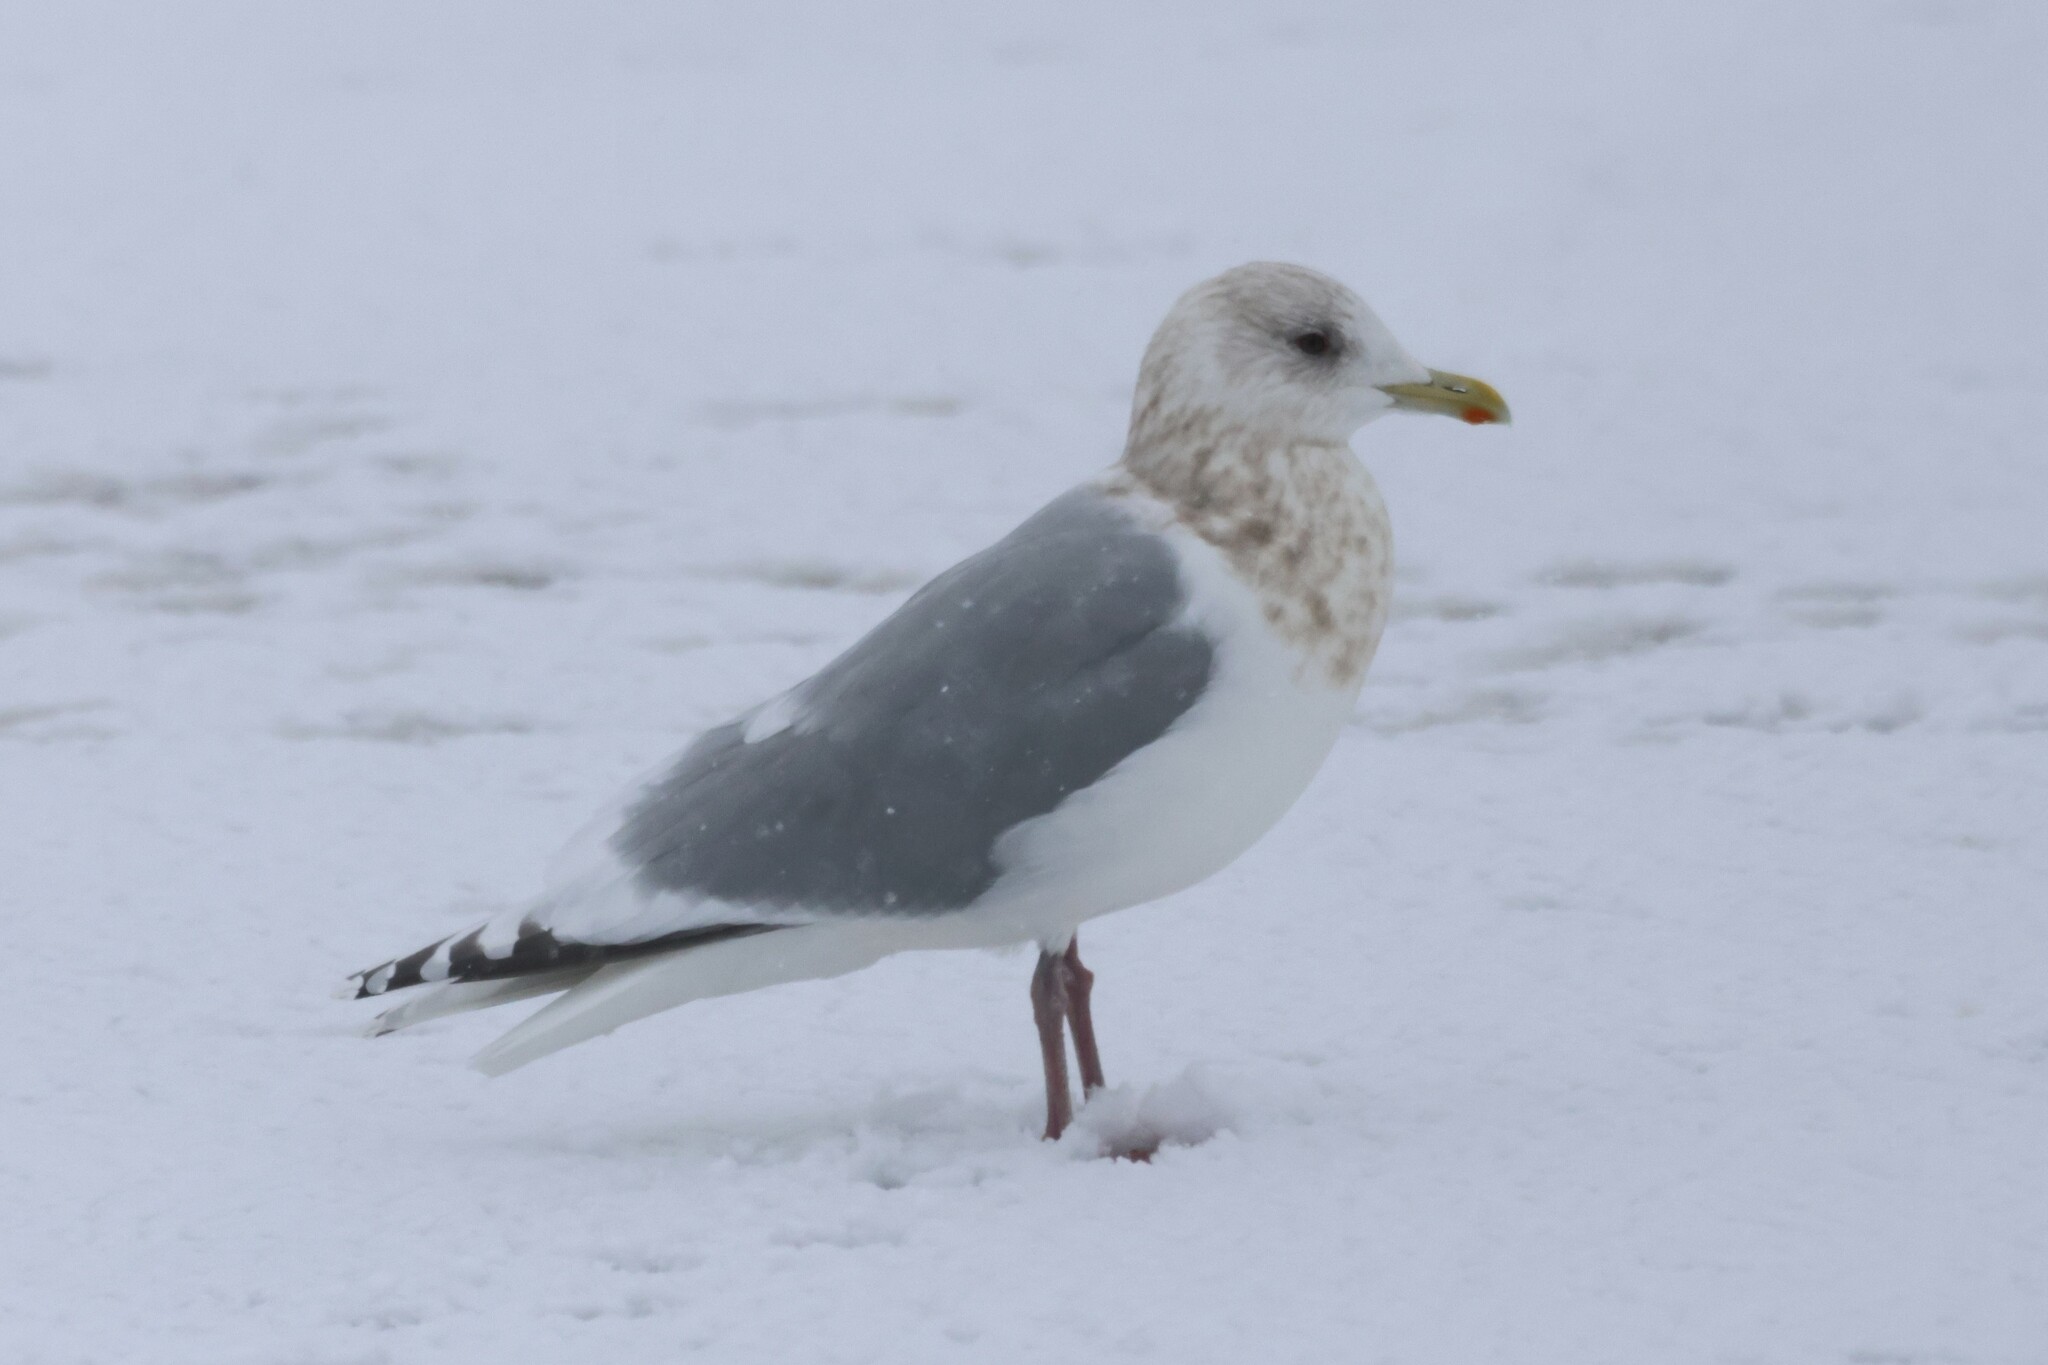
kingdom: Animalia
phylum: Chordata
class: Aves
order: Charadriiformes
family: Laridae
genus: Larus
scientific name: Larus glaucoides
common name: Iceland gull
